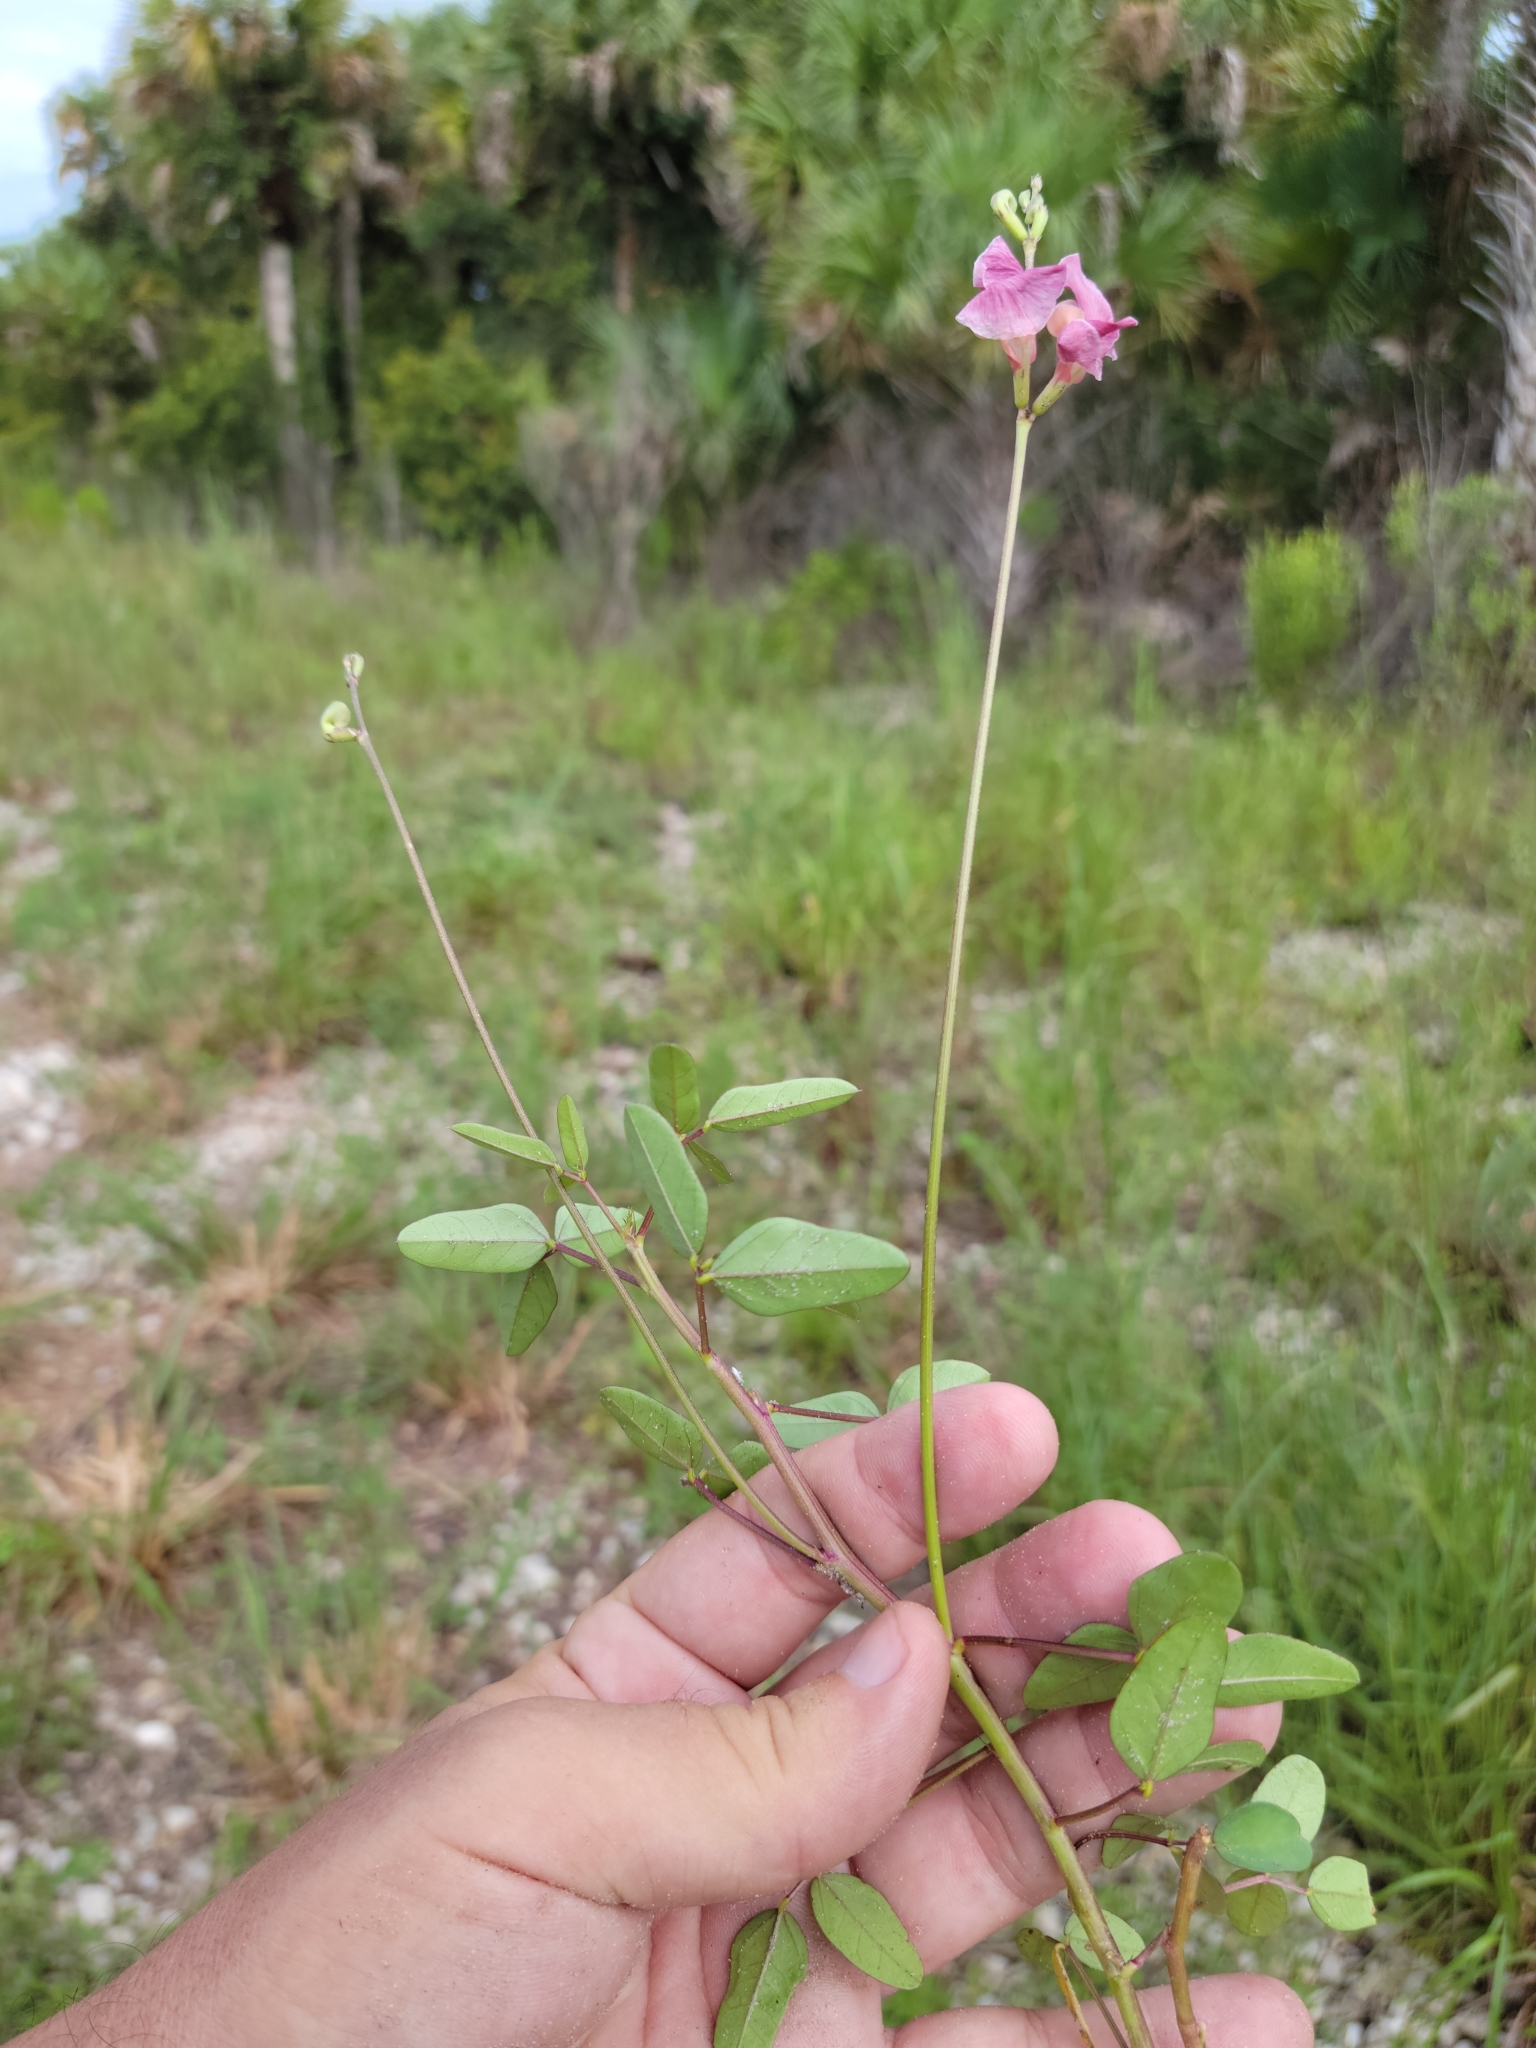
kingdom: Plantae
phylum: Tracheophyta
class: Magnoliopsida
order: Fabales
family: Fabaceae
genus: Macroptilium
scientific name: Macroptilium lathyroides
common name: Wild bushbean
